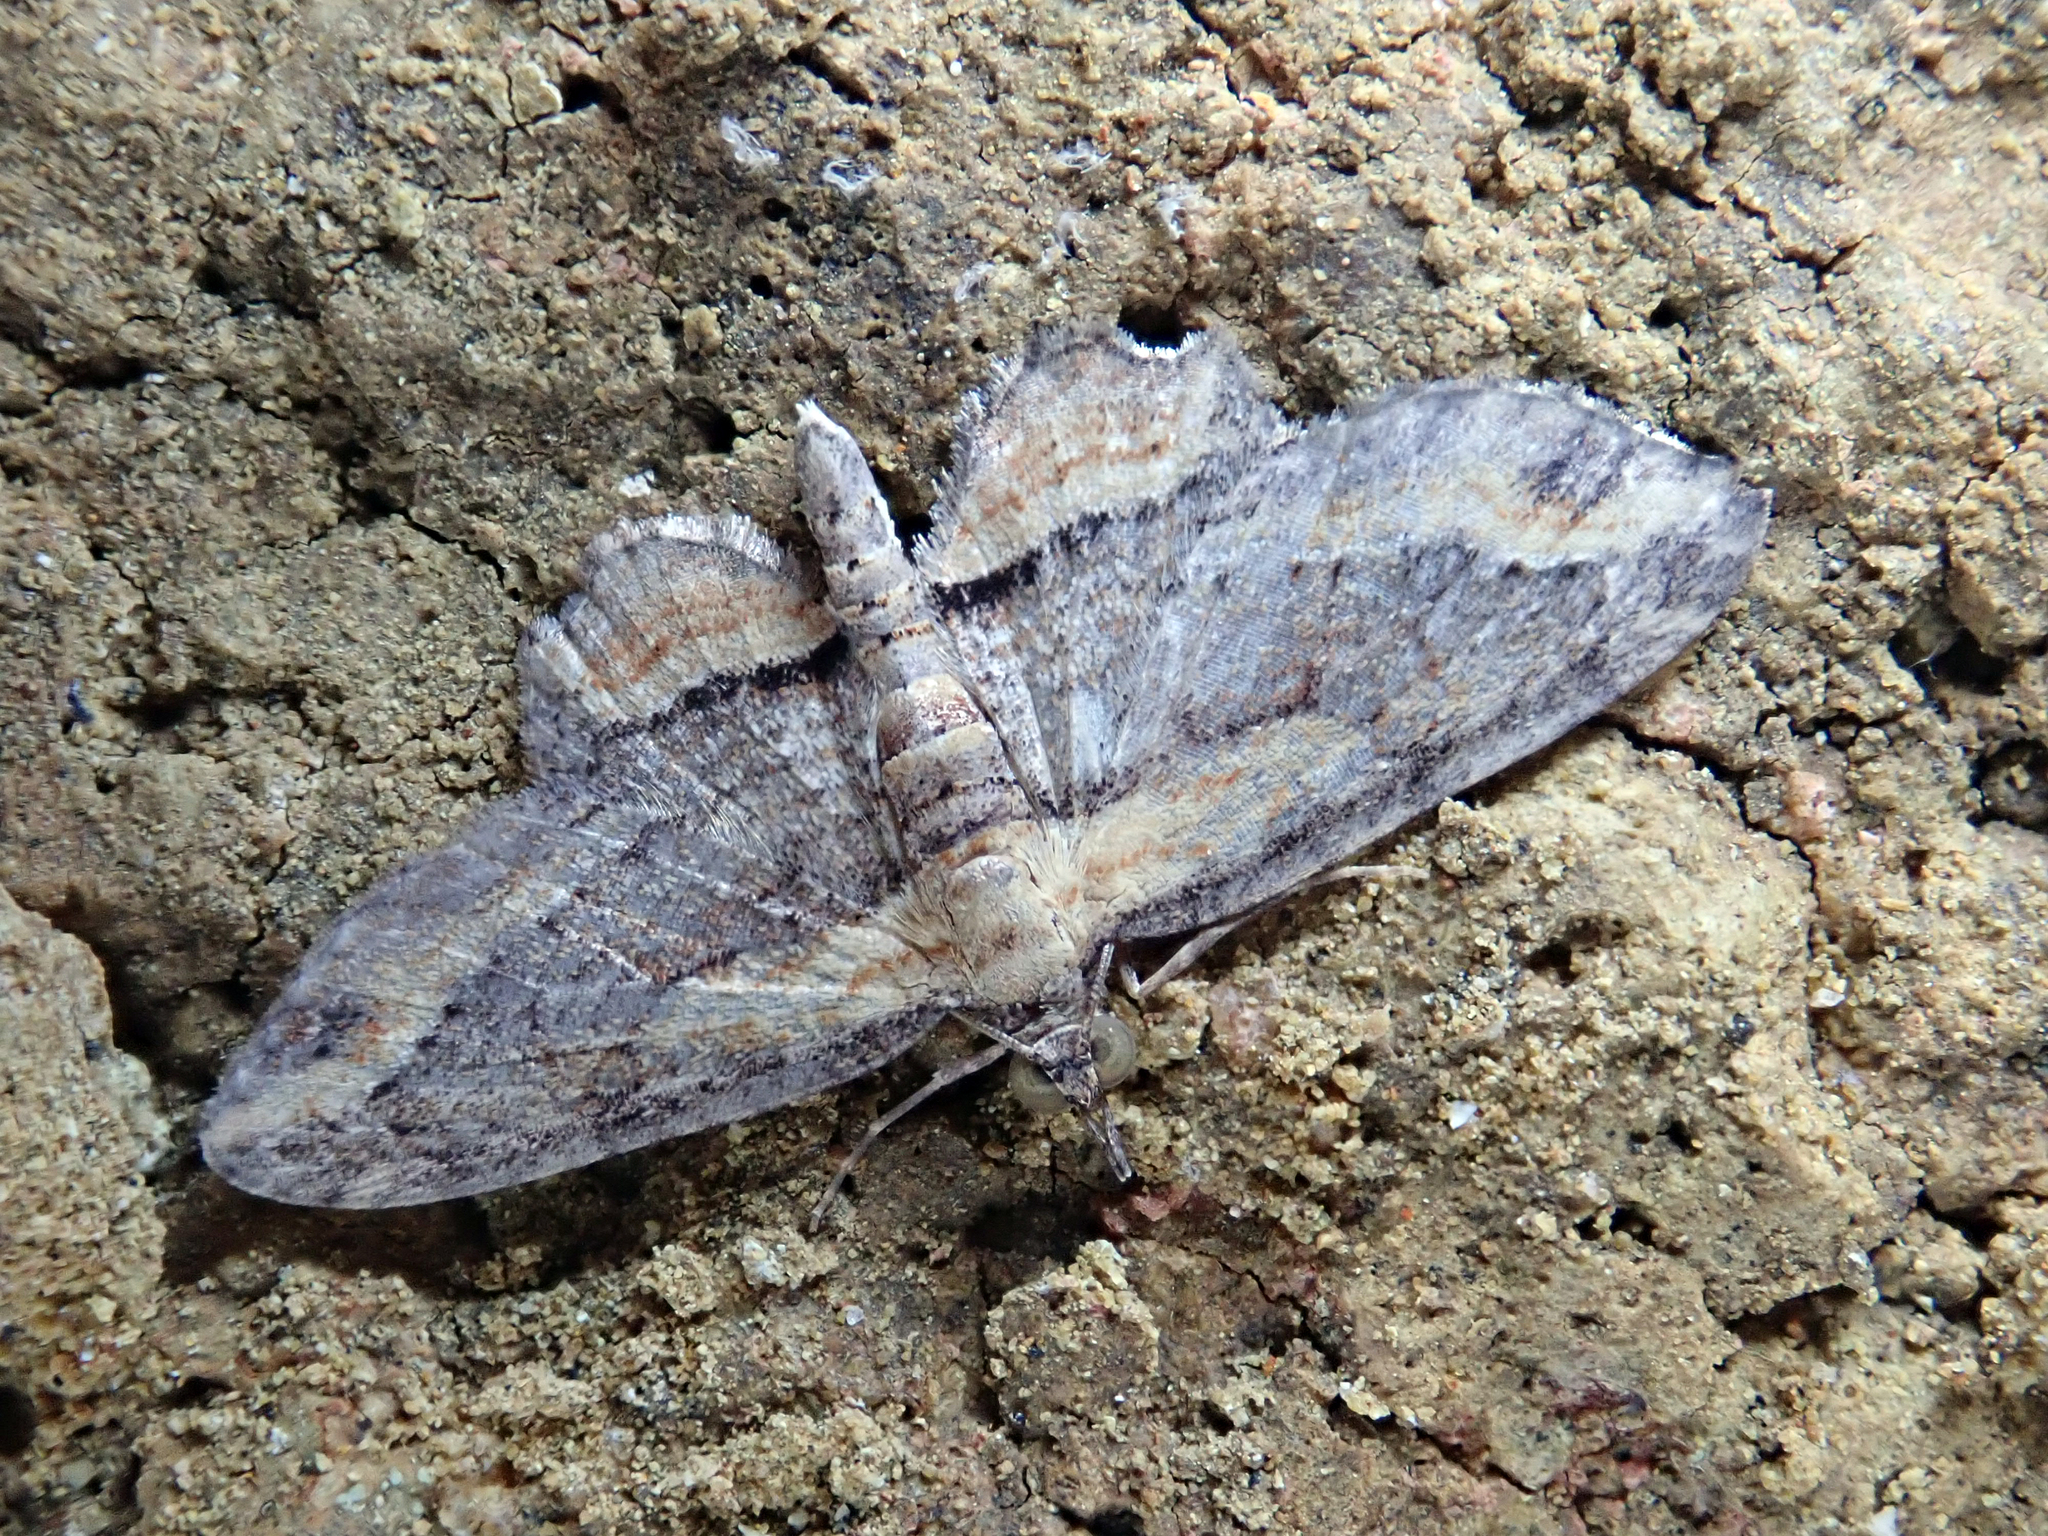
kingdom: Animalia
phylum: Arthropoda
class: Insecta
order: Lepidoptera
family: Geometridae
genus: Chloroclystis
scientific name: Chloroclystis filata
